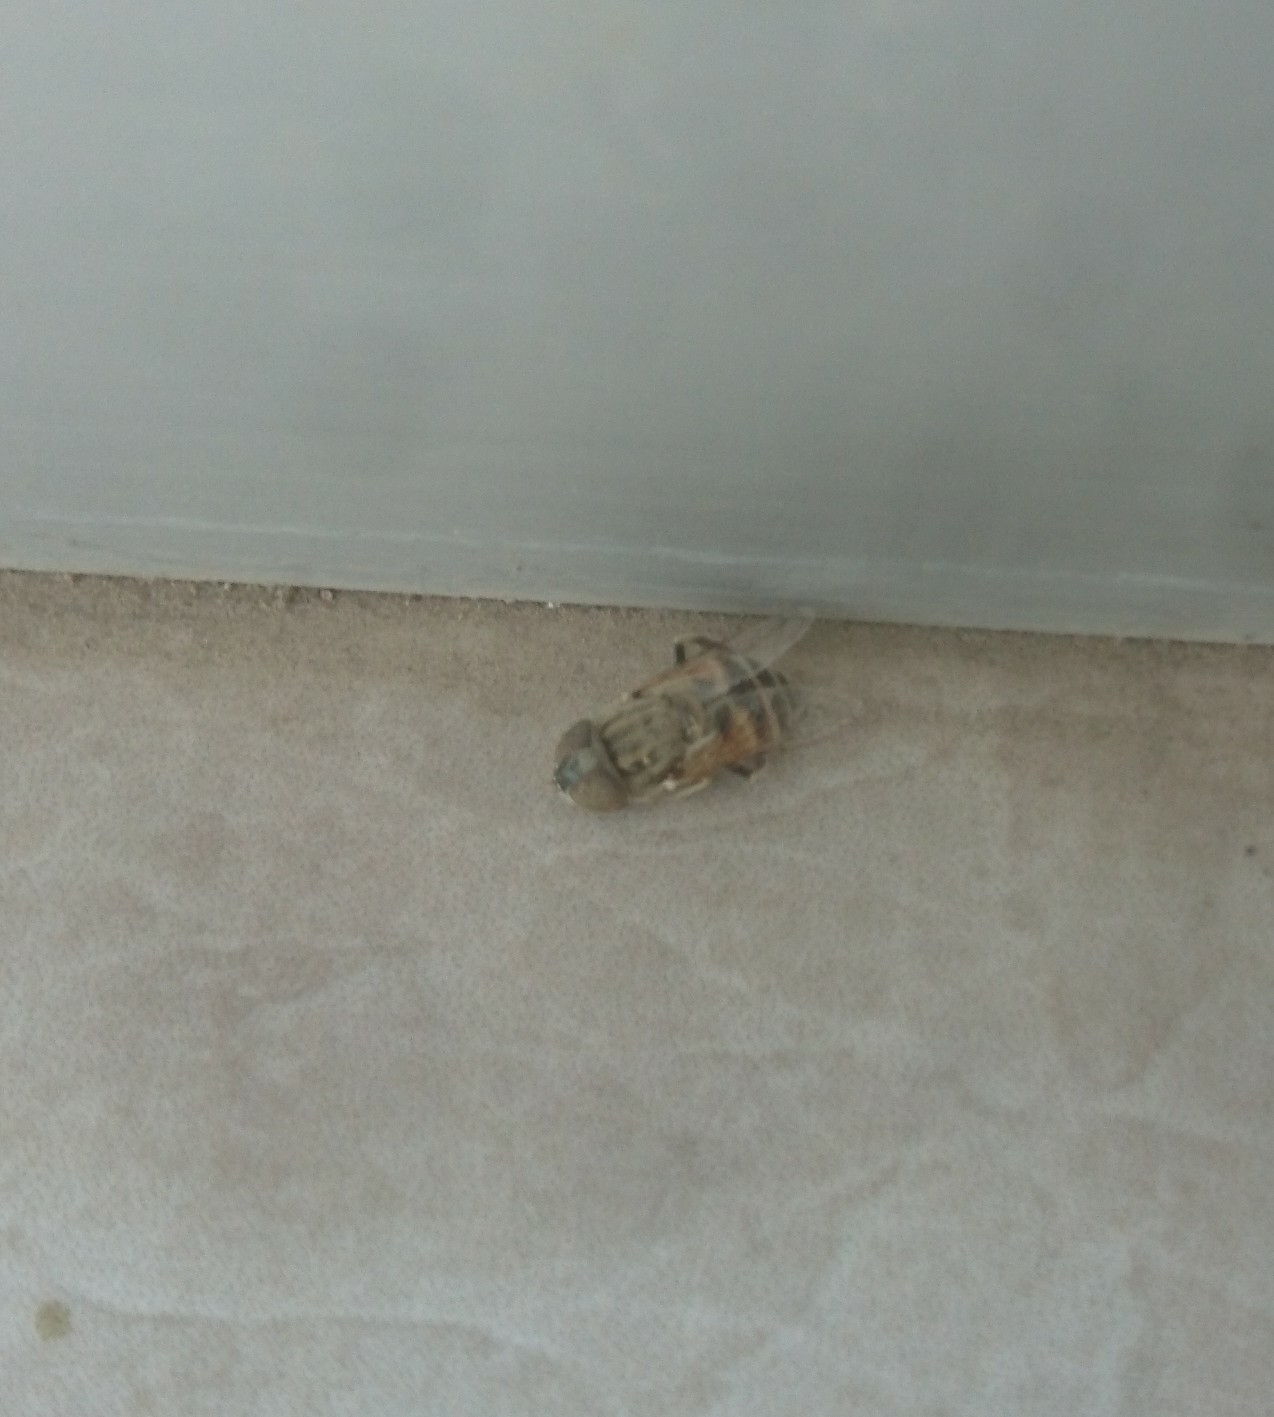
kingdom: Animalia
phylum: Arthropoda
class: Insecta
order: Diptera
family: Syrphidae
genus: Eristalinus
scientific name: Eristalinus megacephalus
